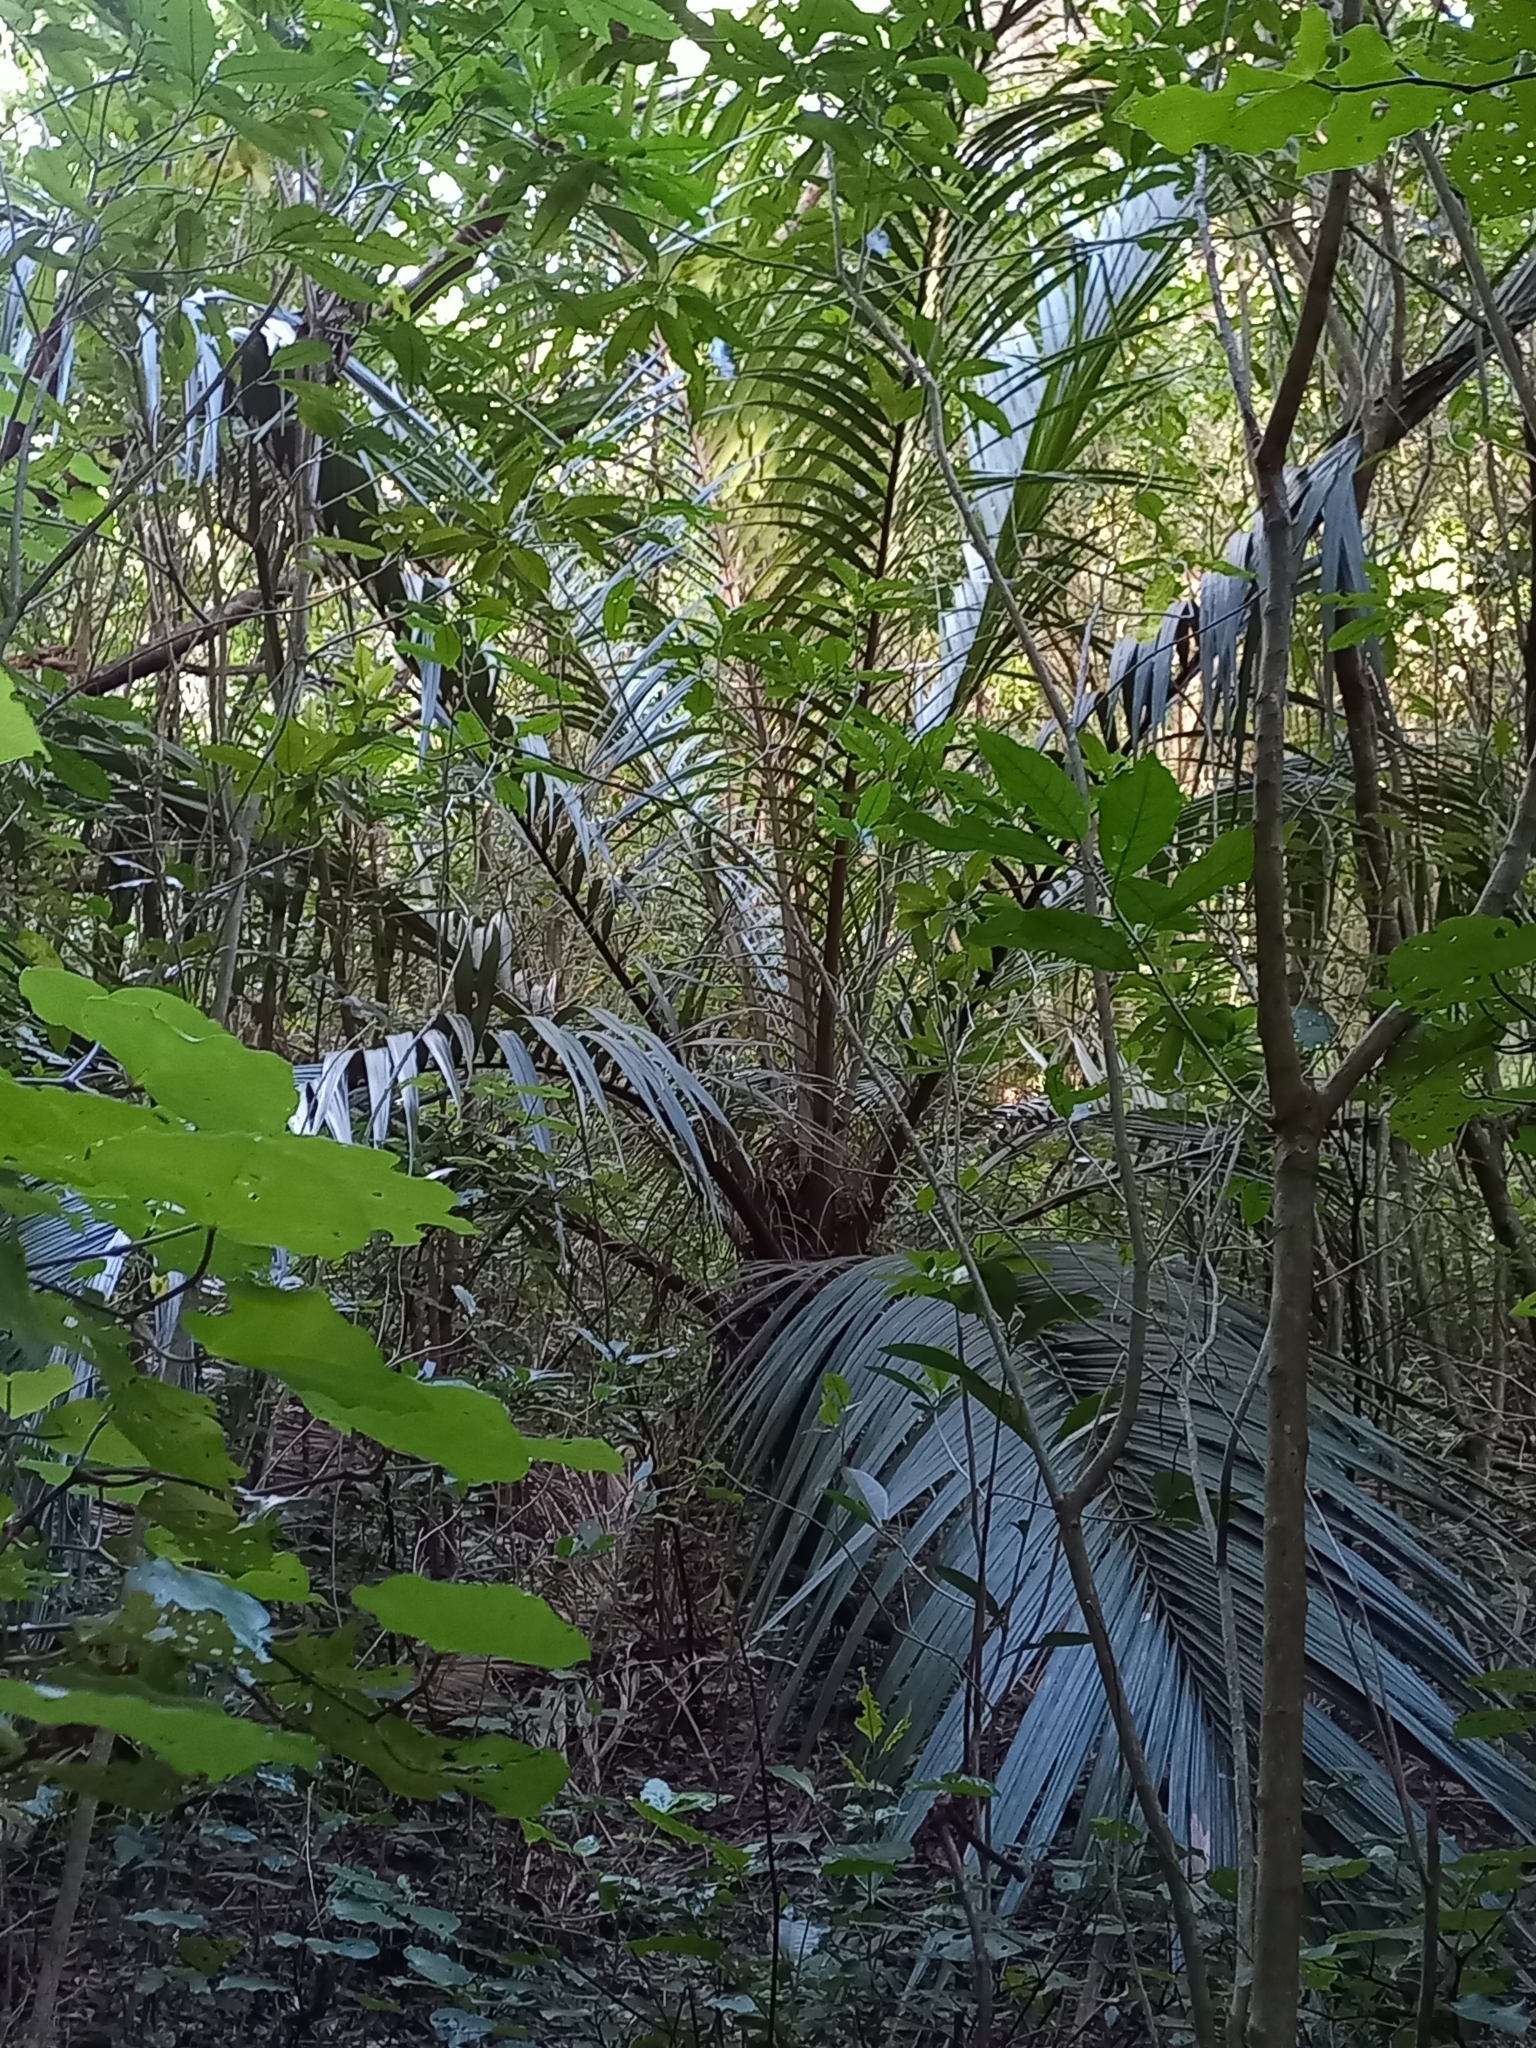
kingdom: Plantae
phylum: Tracheophyta
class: Liliopsida
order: Arecales
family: Arecaceae
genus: Rhopalostylis
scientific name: Rhopalostylis sapida
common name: Feather-duster palm
